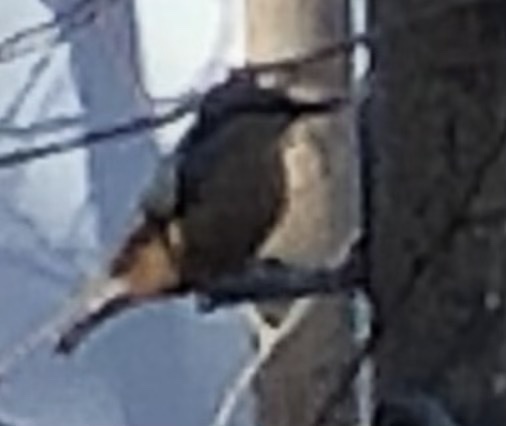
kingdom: Animalia
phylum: Chordata
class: Aves
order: Passeriformes
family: Sittidae
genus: Sitta
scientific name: Sitta europaea
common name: Eurasian nuthatch
